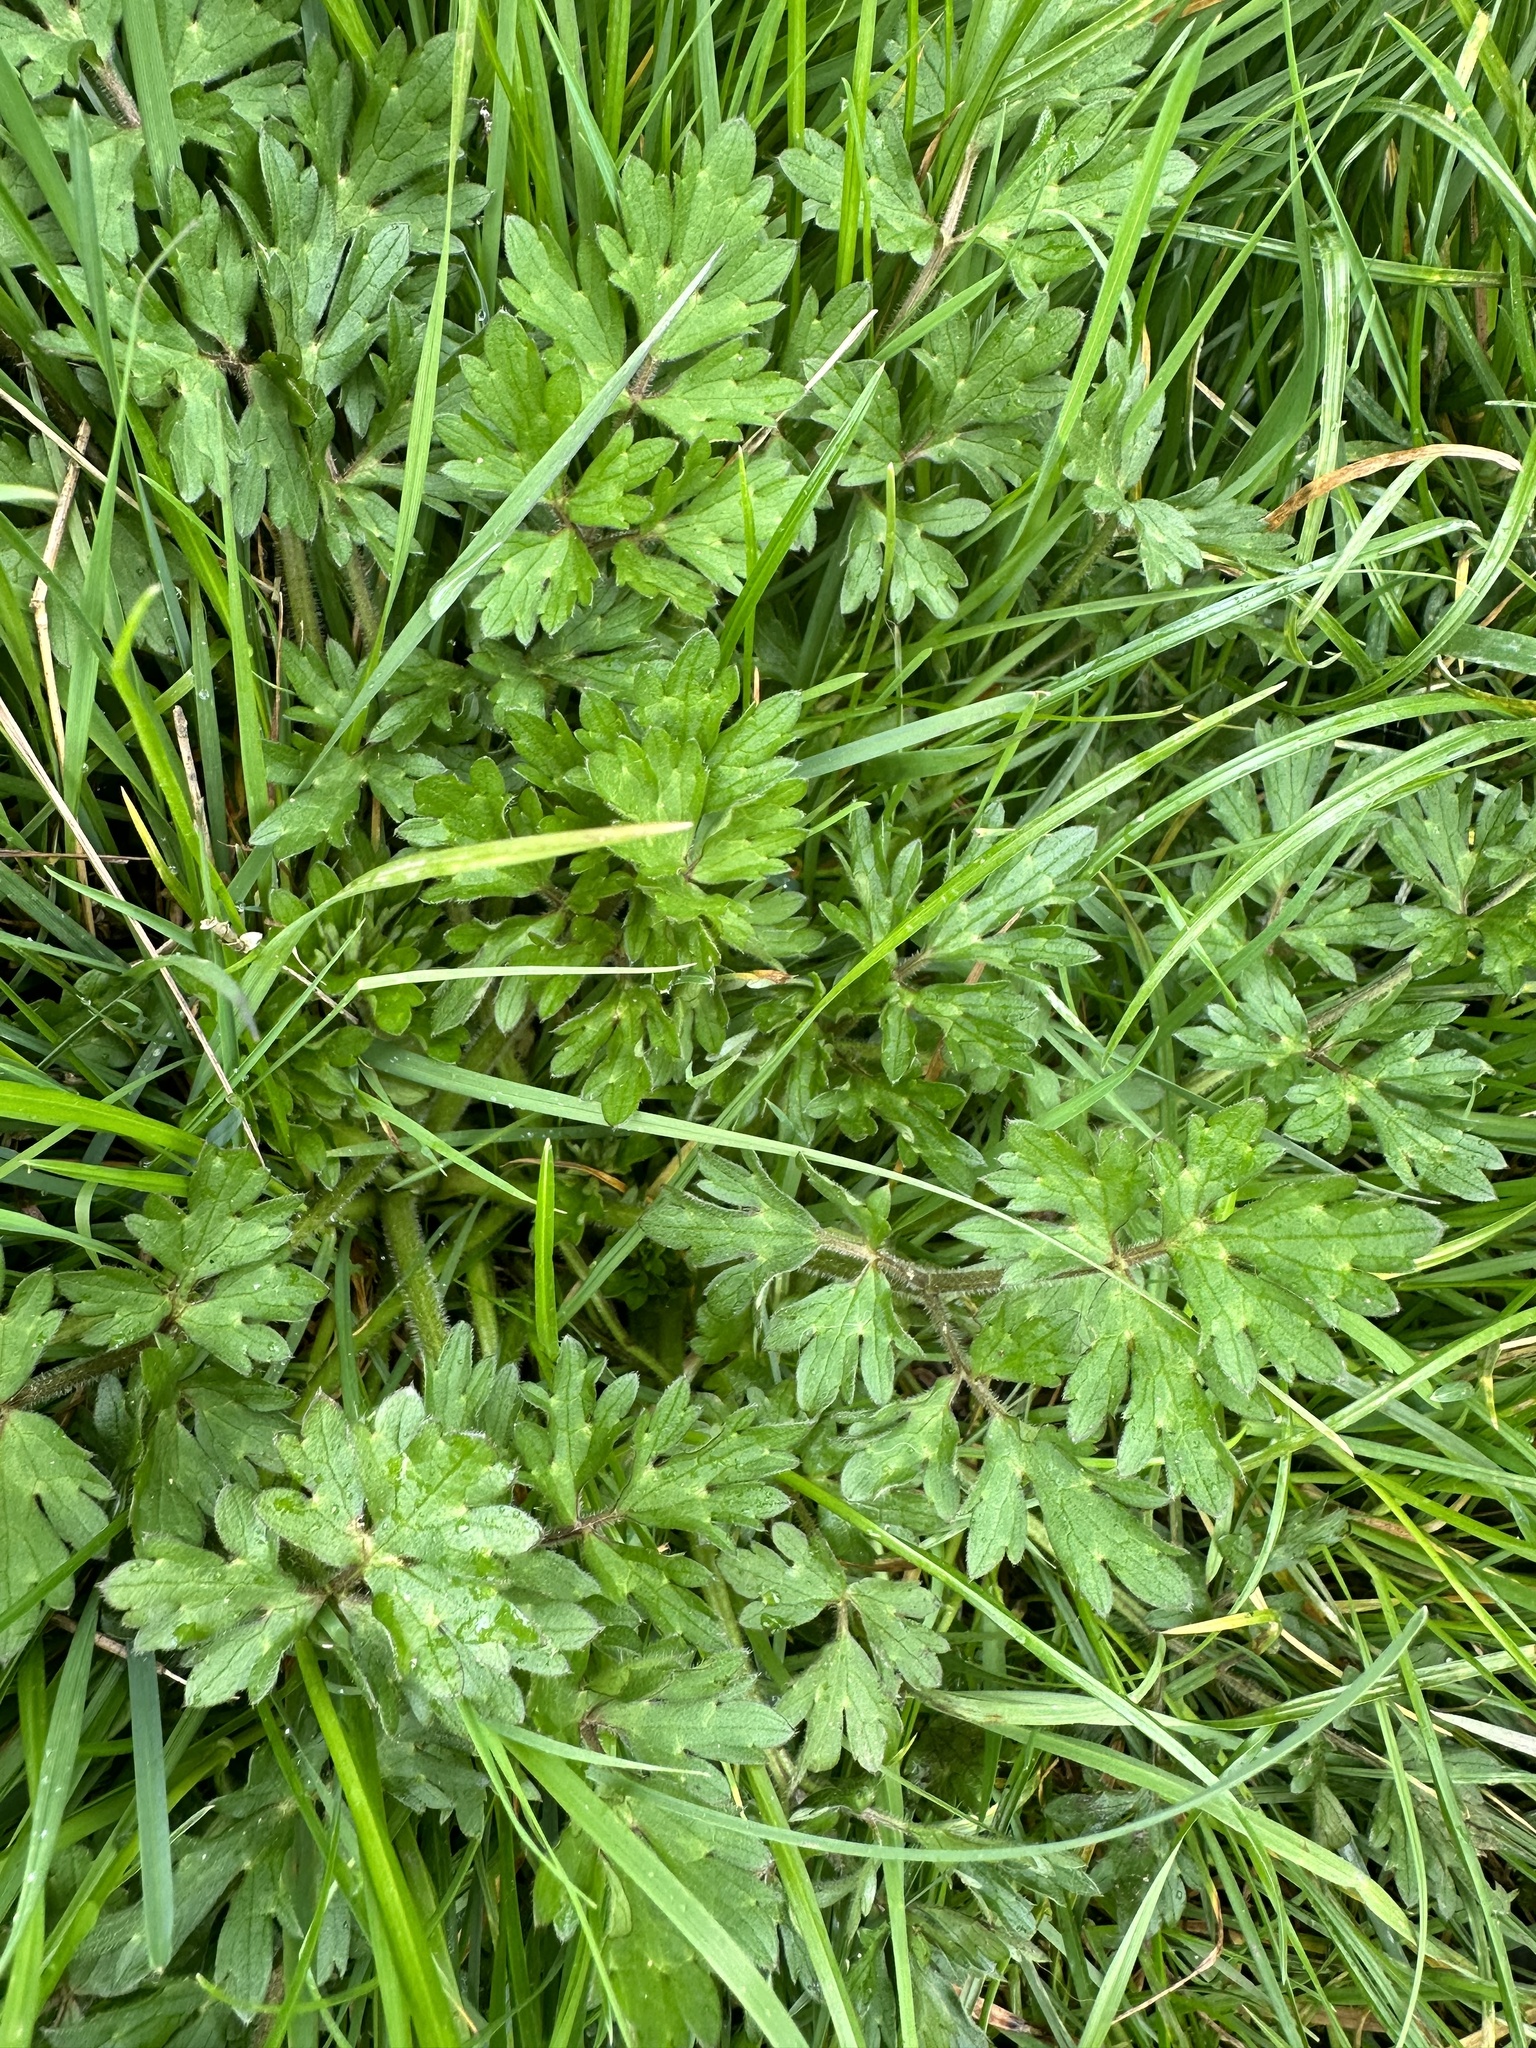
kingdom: Plantae
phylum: Tracheophyta
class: Magnoliopsida
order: Ranunculales
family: Ranunculaceae
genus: Ranunculus
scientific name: Ranunculus repens
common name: Creeping buttercup
